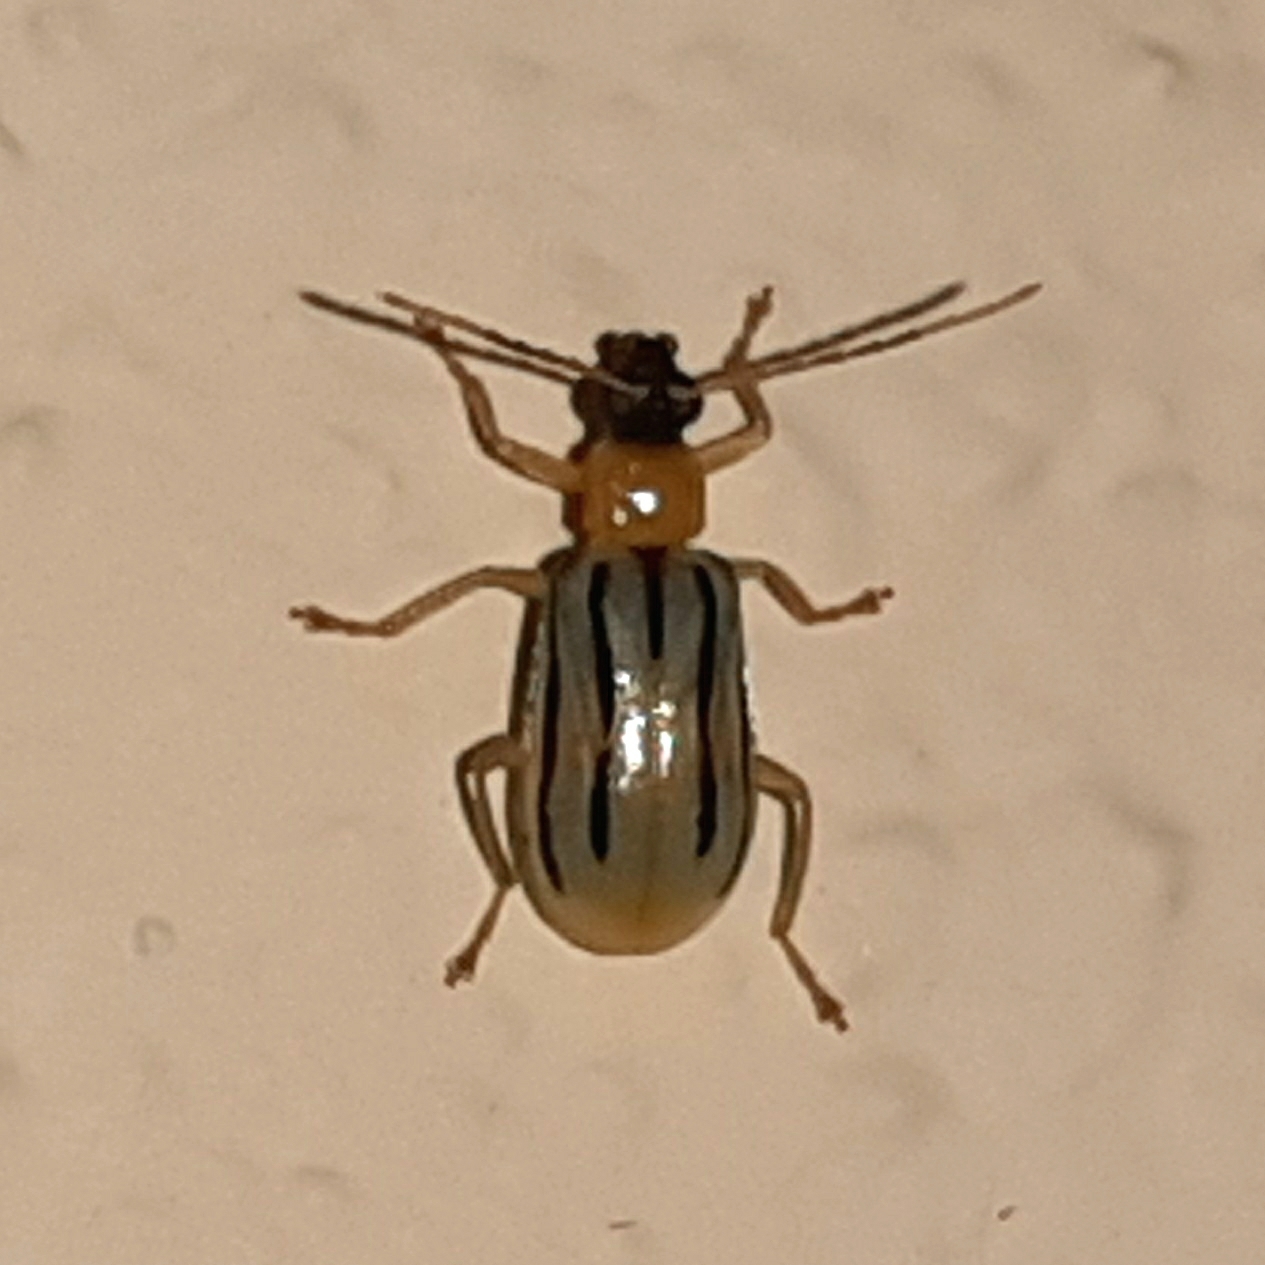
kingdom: Animalia
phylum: Arthropoda
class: Insecta
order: Coleoptera
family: Chrysomelidae
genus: Diabrotica
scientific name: Diabrotica
